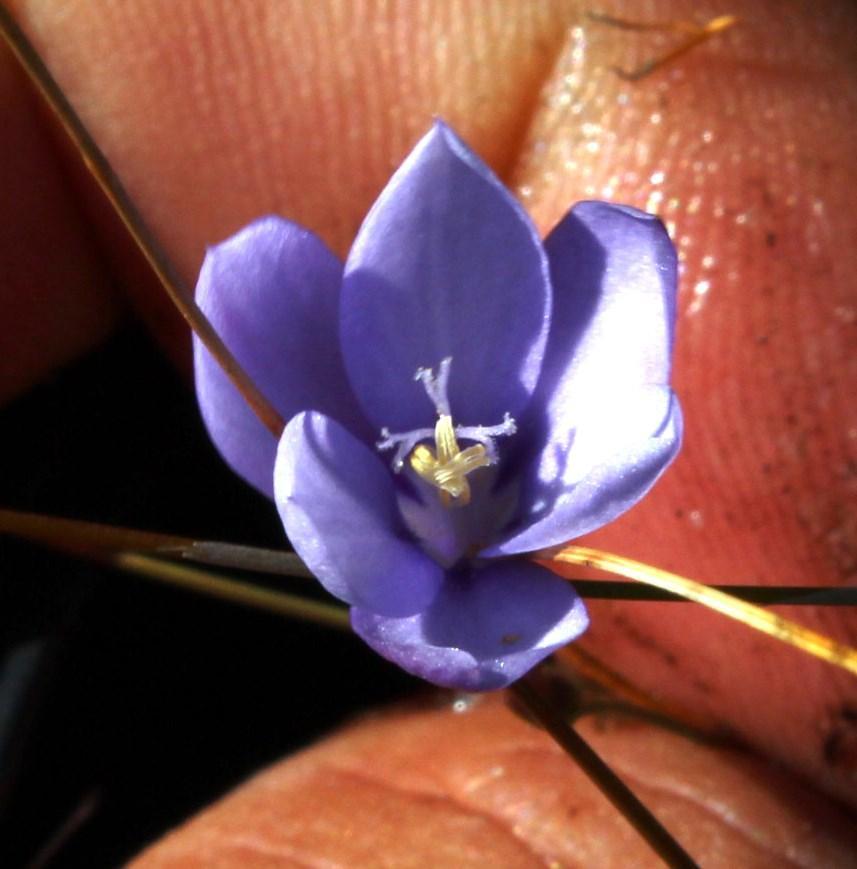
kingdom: Plantae
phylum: Tracheophyta
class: Liliopsida
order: Asparagales
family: Iridaceae
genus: Thereianthus
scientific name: Thereianthus juncifolius
